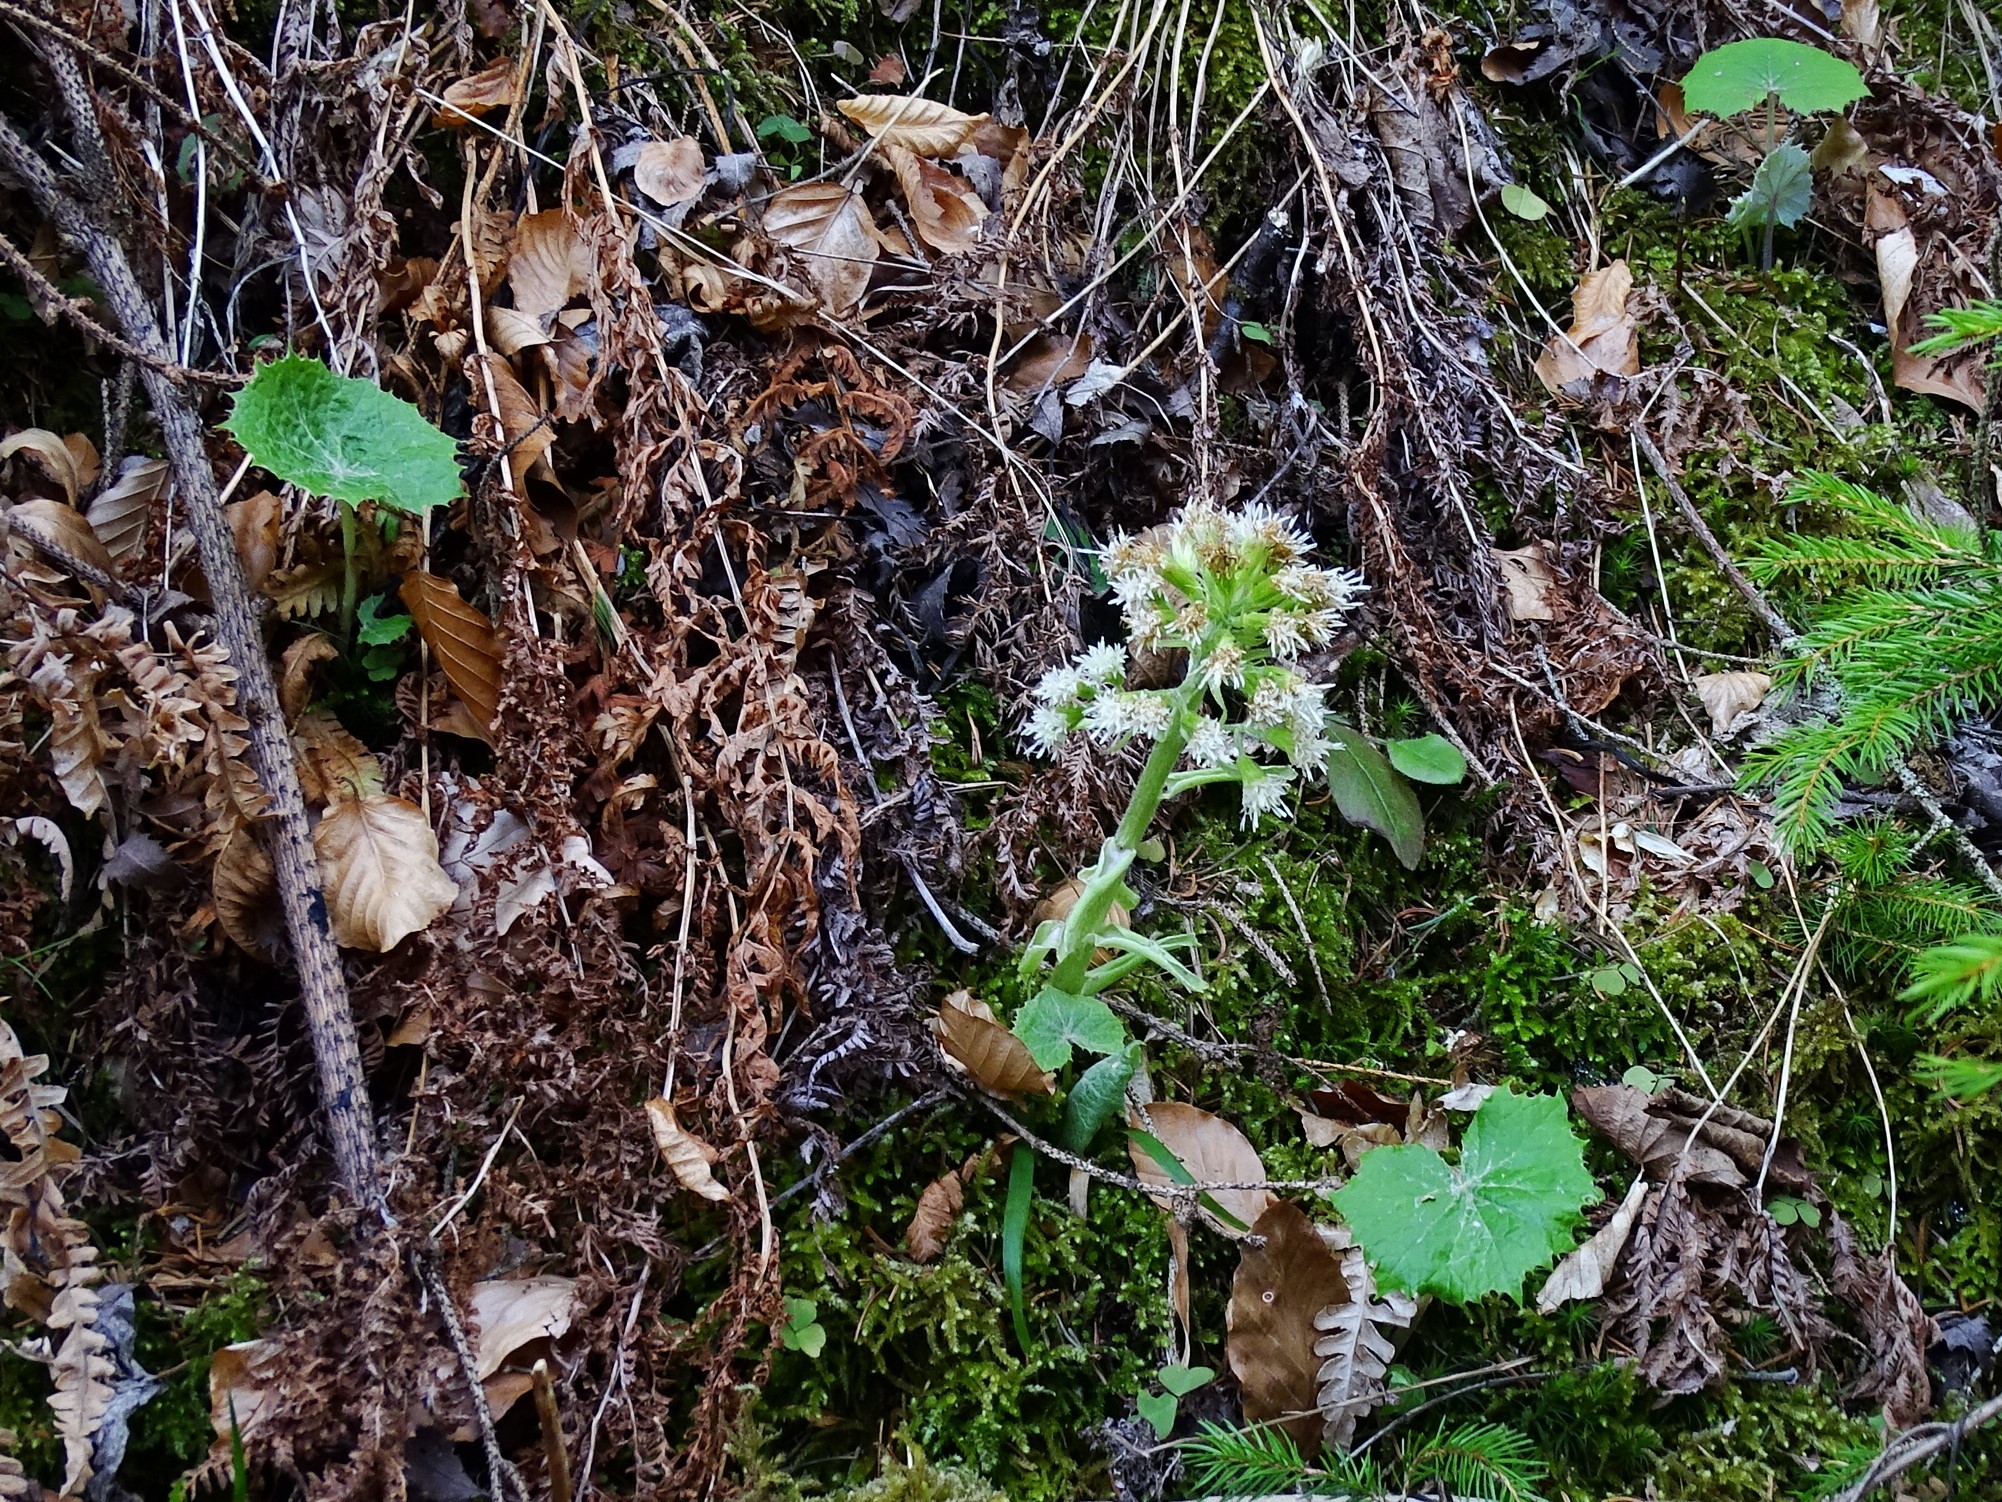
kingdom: Plantae
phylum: Tracheophyta
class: Magnoliopsida
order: Asterales
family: Asteraceae
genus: Petasites
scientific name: Petasites albus
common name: White butterbur
